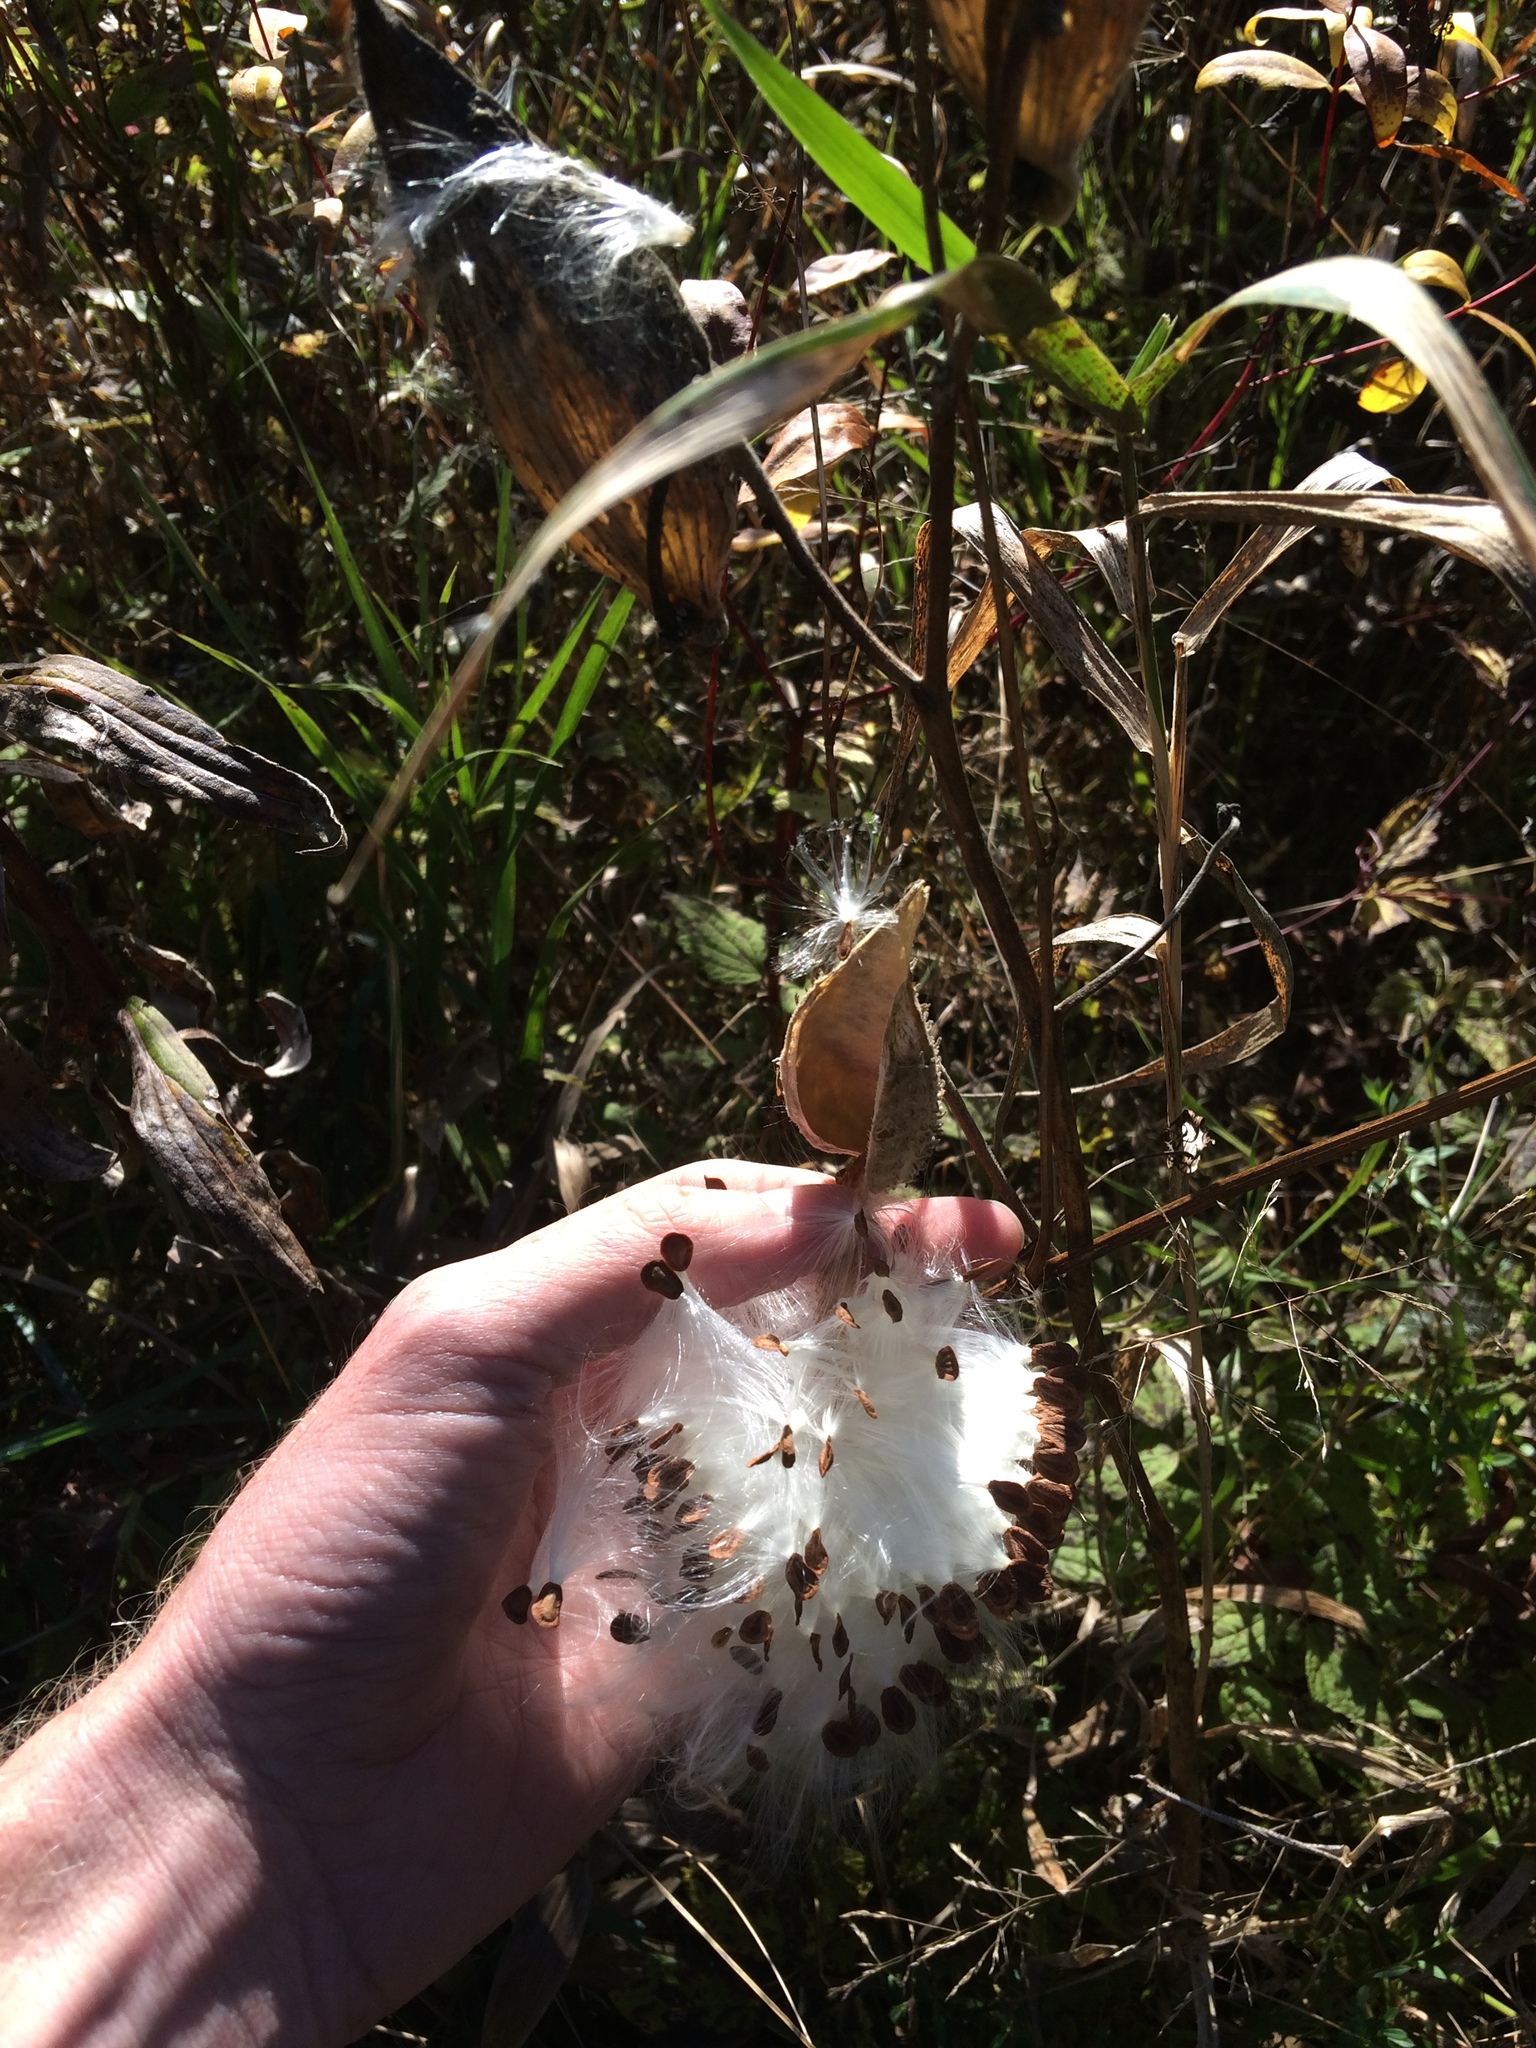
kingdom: Plantae
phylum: Tracheophyta
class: Magnoliopsida
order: Gentianales
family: Apocynaceae
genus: Asclepias
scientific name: Asclepias syriaca
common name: Common milkweed
